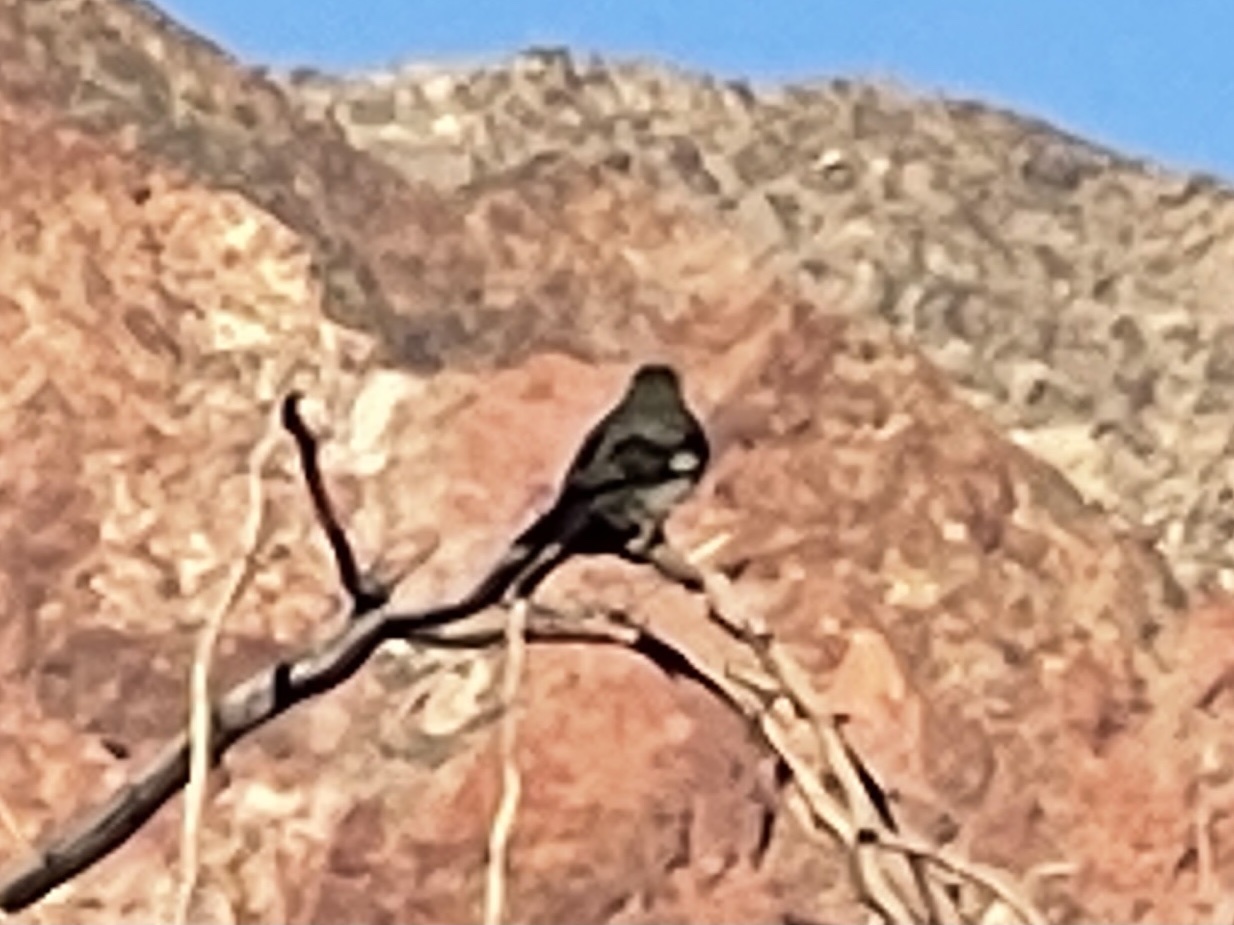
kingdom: Animalia
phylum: Chordata
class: Aves
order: Passeriformes
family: Mimidae
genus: Mimus
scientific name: Mimus polyglottos
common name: Northern mockingbird
